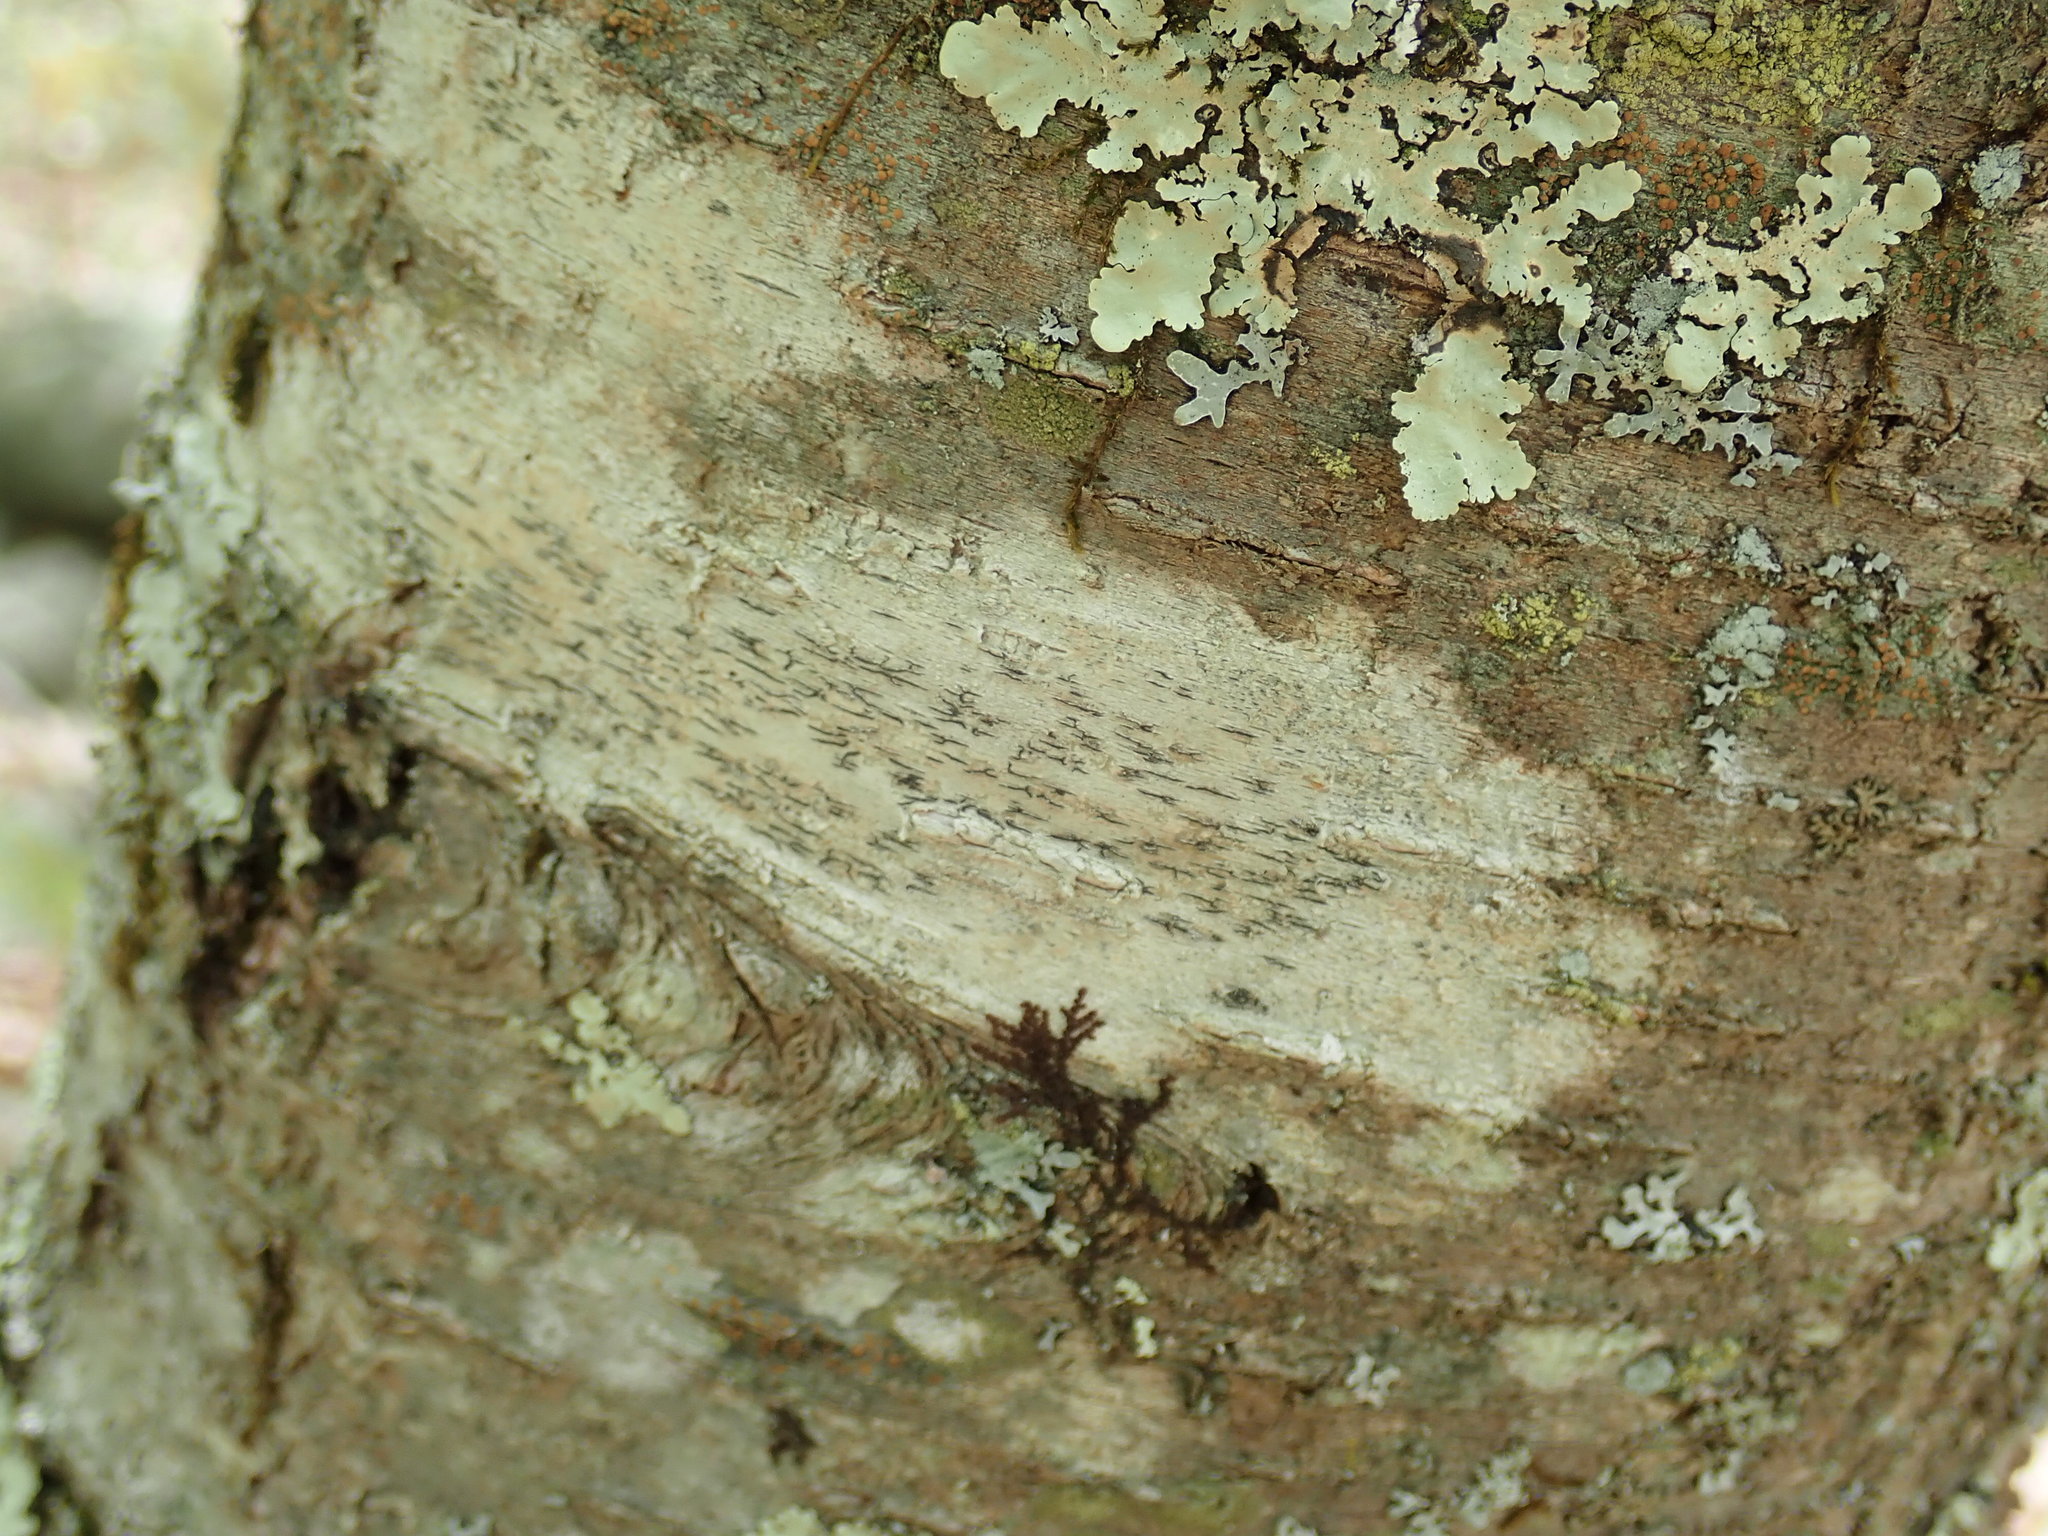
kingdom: Fungi
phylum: Ascomycota
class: Lecanoromycetes
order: Ostropales
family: Graphidaceae
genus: Graphis
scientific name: Graphis scripta
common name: Script lichen
